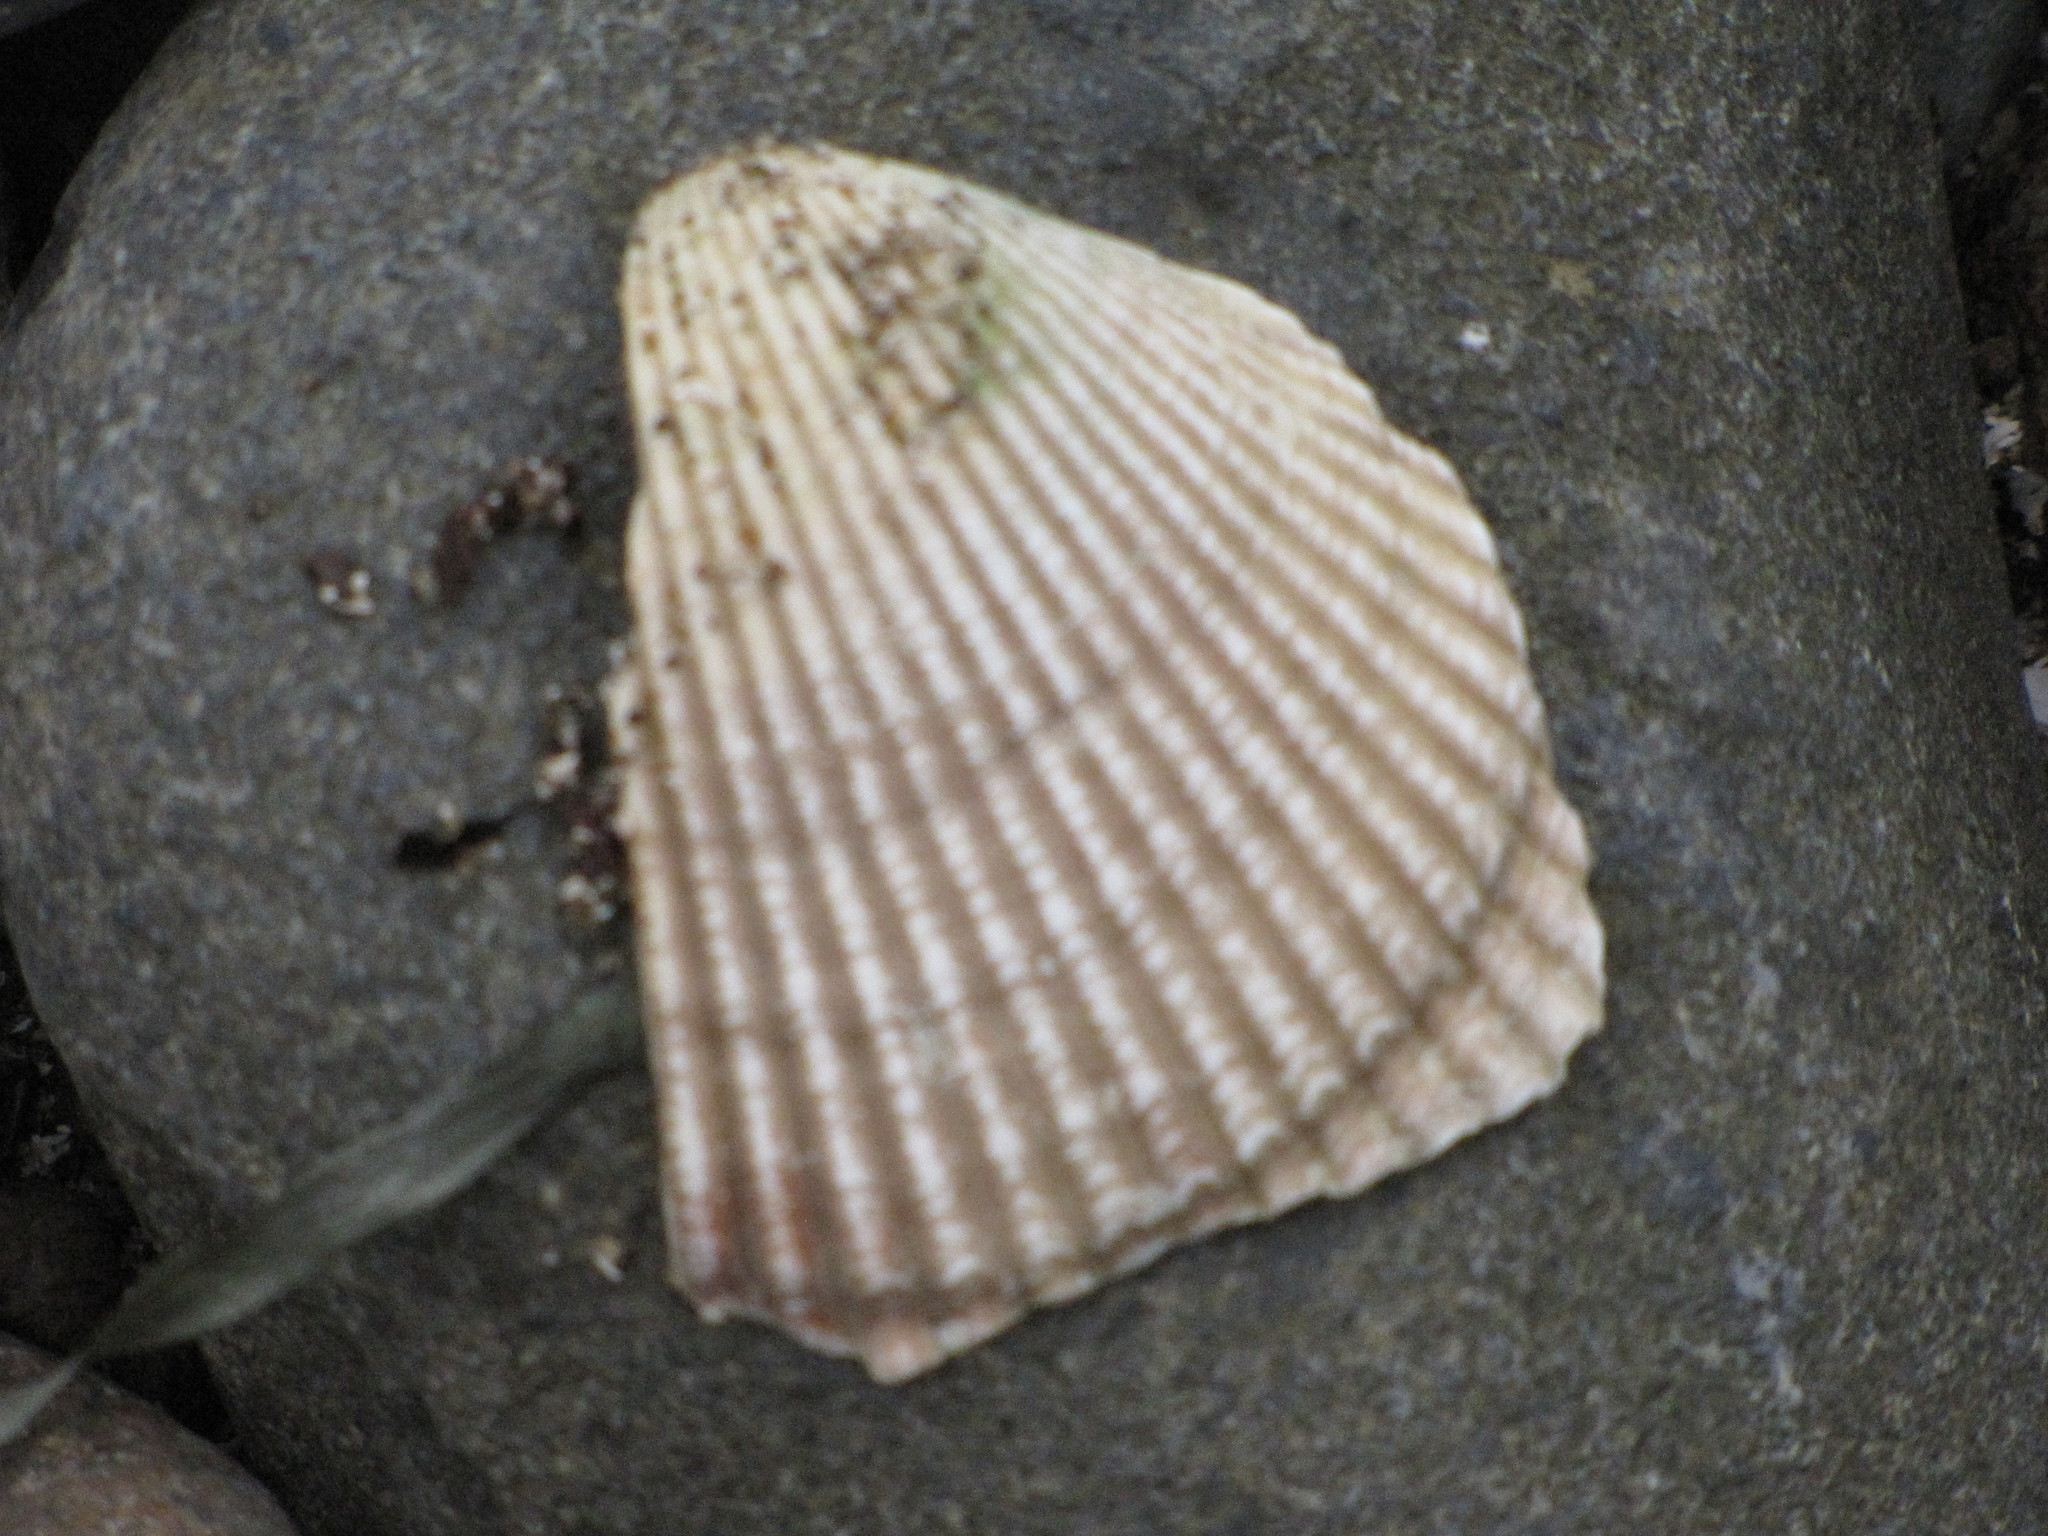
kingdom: Animalia
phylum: Mollusca
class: Bivalvia
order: Cardiida
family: Cardiidae
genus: Clinocardium
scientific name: Clinocardium nuttallii
